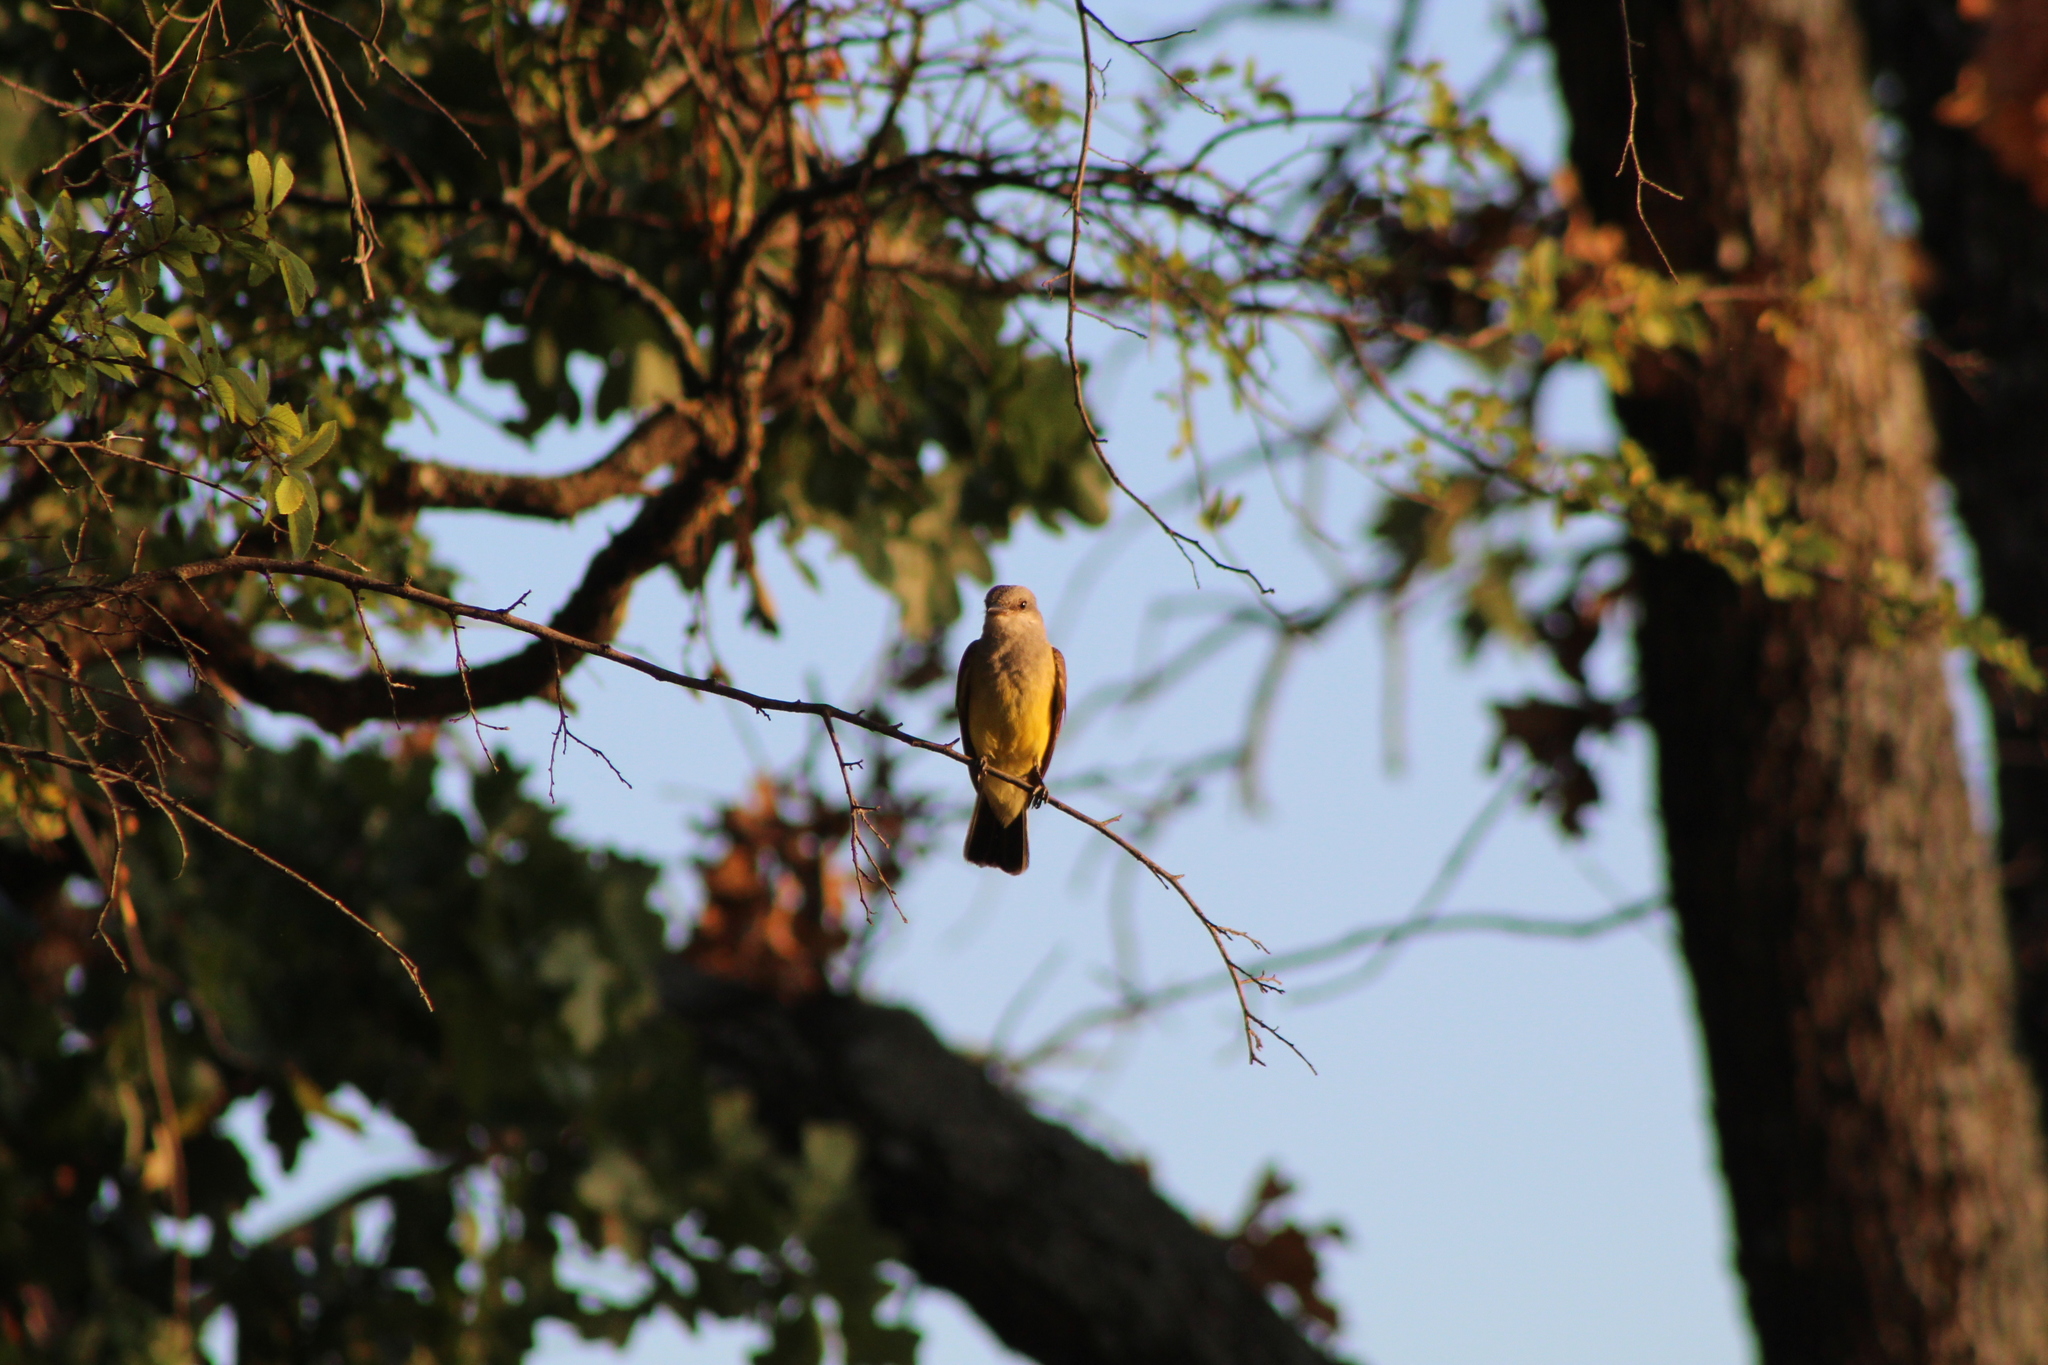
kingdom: Animalia
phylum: Chordata
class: Aves
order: Passeriformes
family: Tyrannidae
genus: Tyrannus
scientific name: Tyrannus verticalis
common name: Western kingbird
